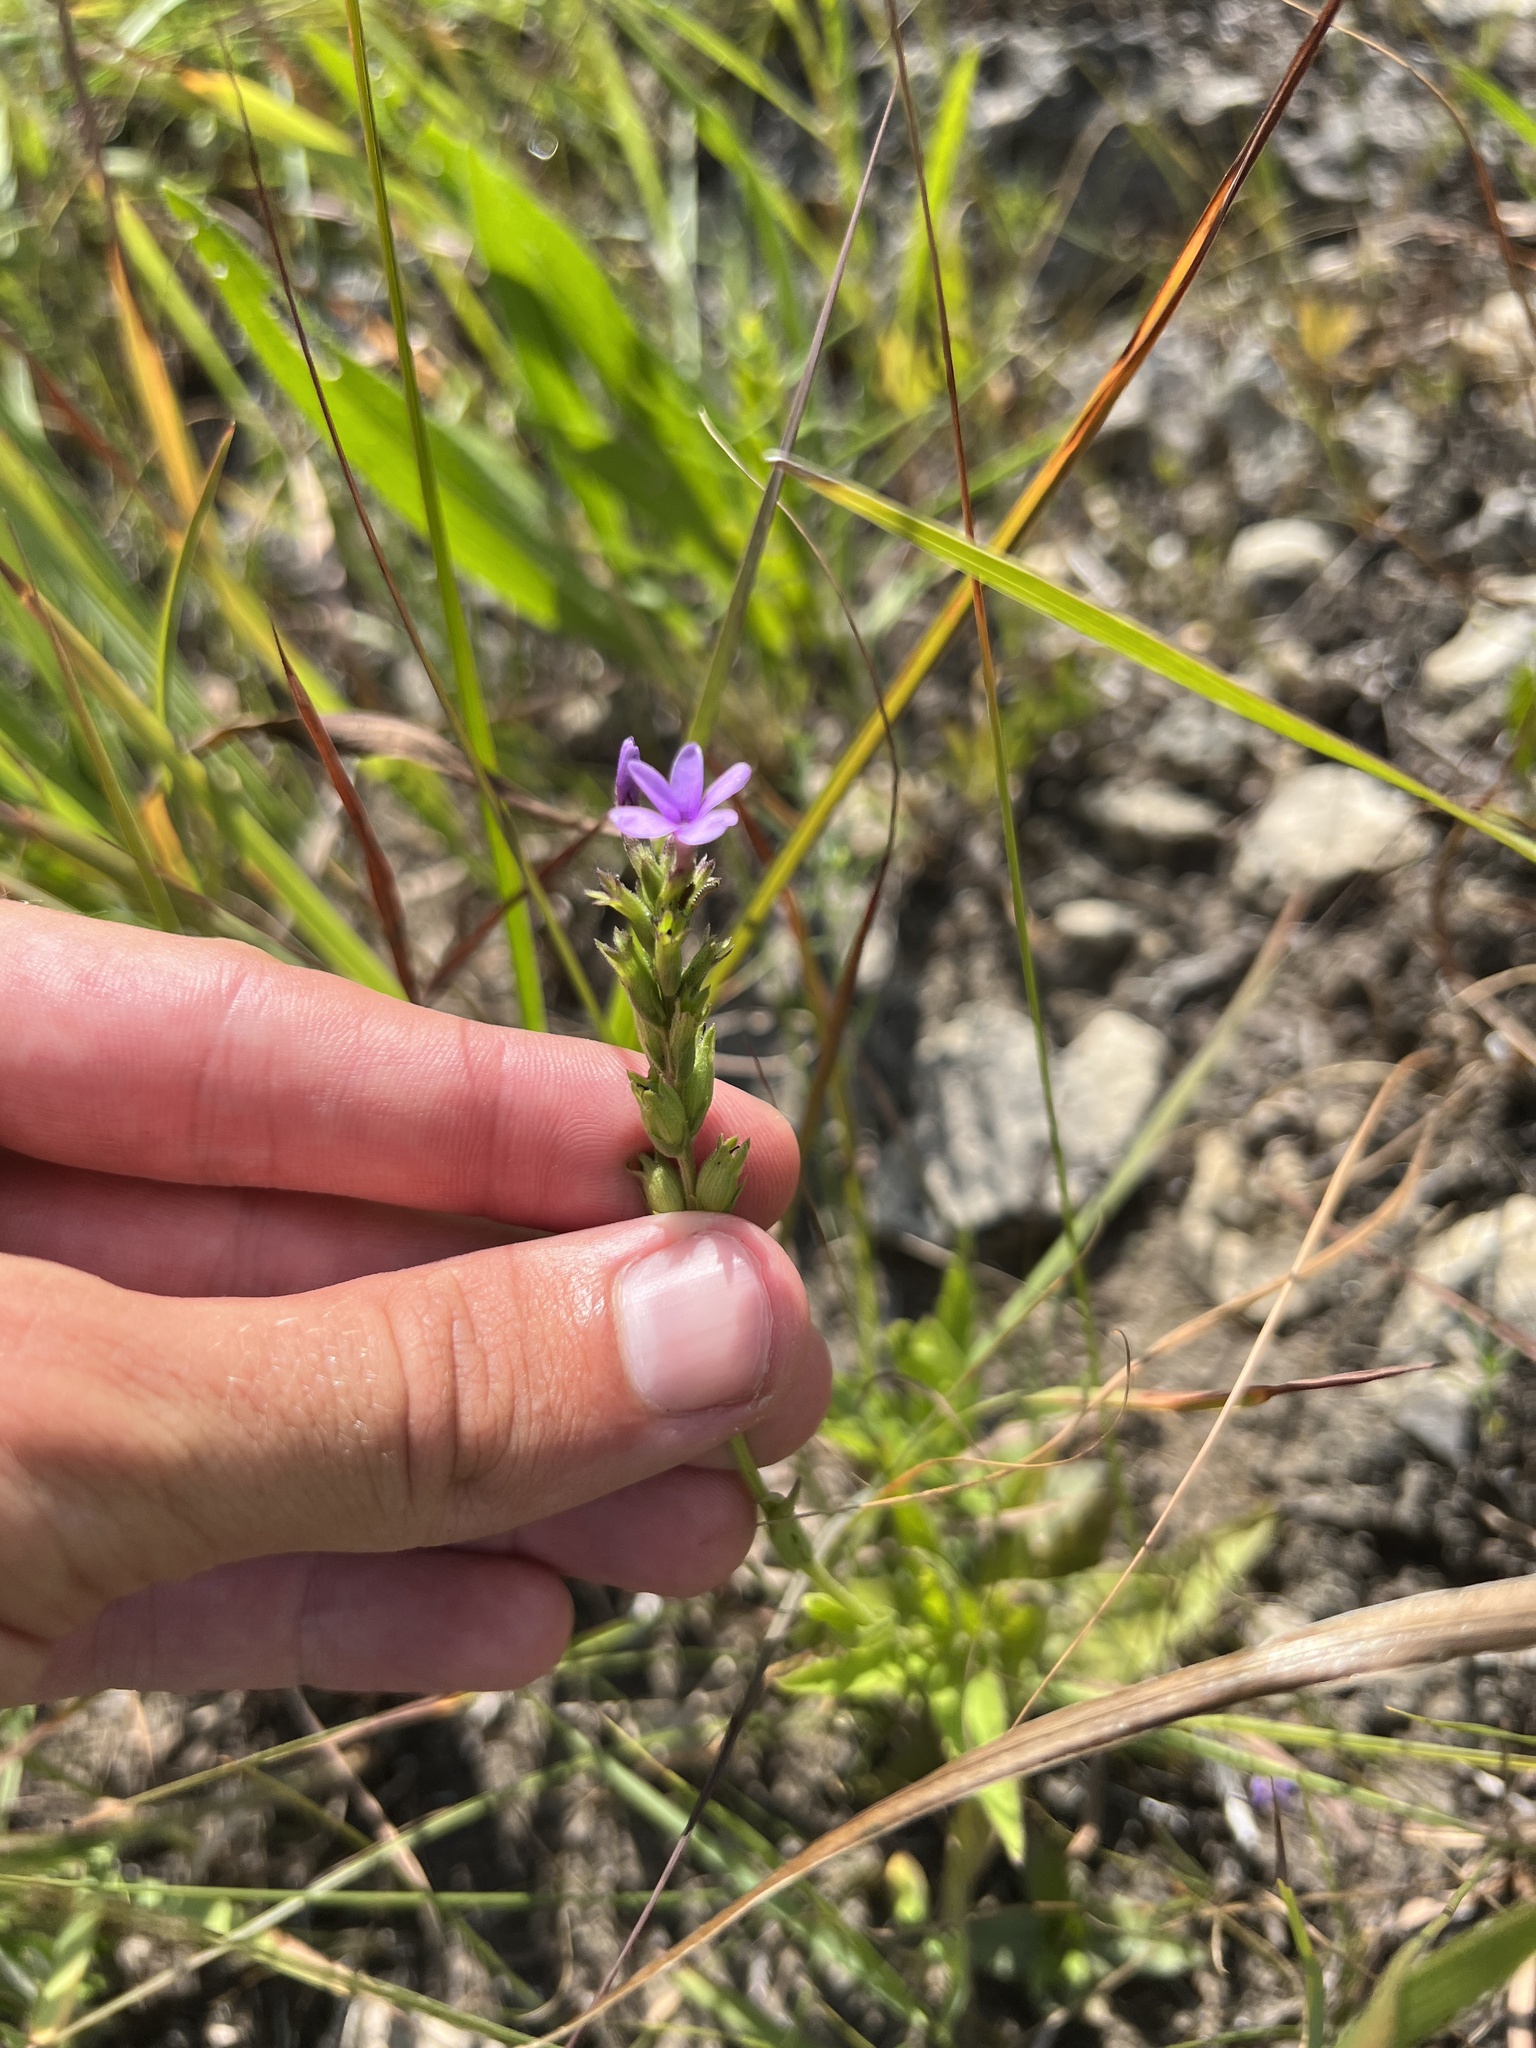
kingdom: Plantae
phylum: Tracheophyta
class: Magnoliopsida
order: Lamiales
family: Orobanchaceae
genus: Buchnera
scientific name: Buchnera americana
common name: American bluehearts
